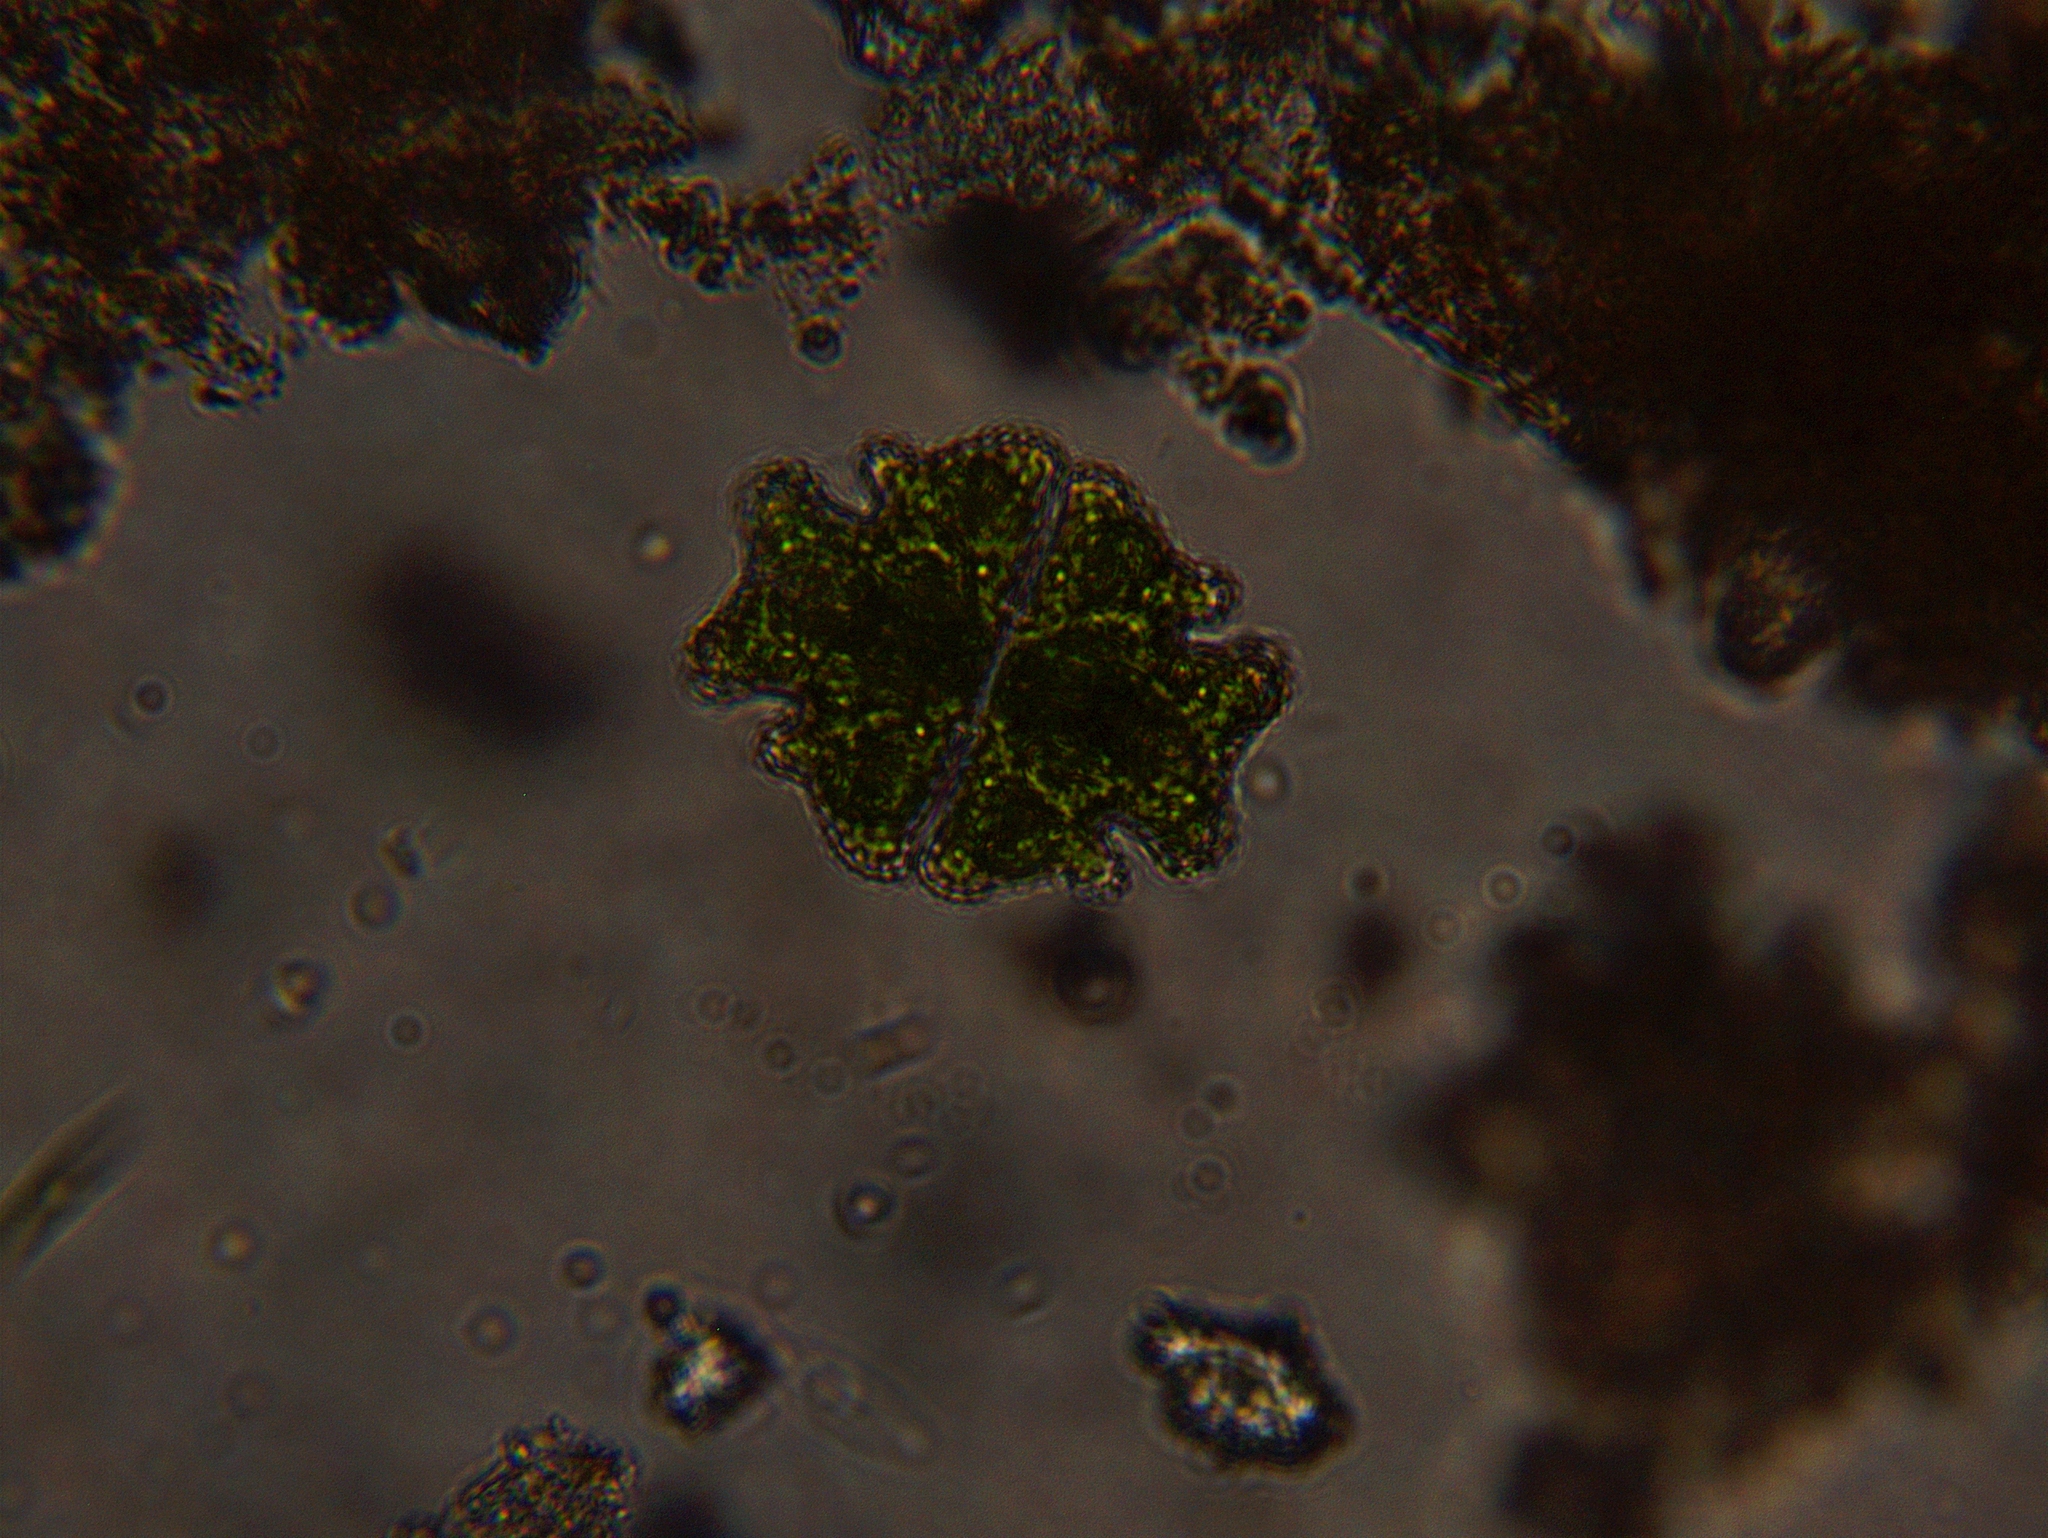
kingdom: Plantae
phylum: Charophyta
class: Conjugatophyceae
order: Desmidiales
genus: Euastrum
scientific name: Euastrum verrucosum
